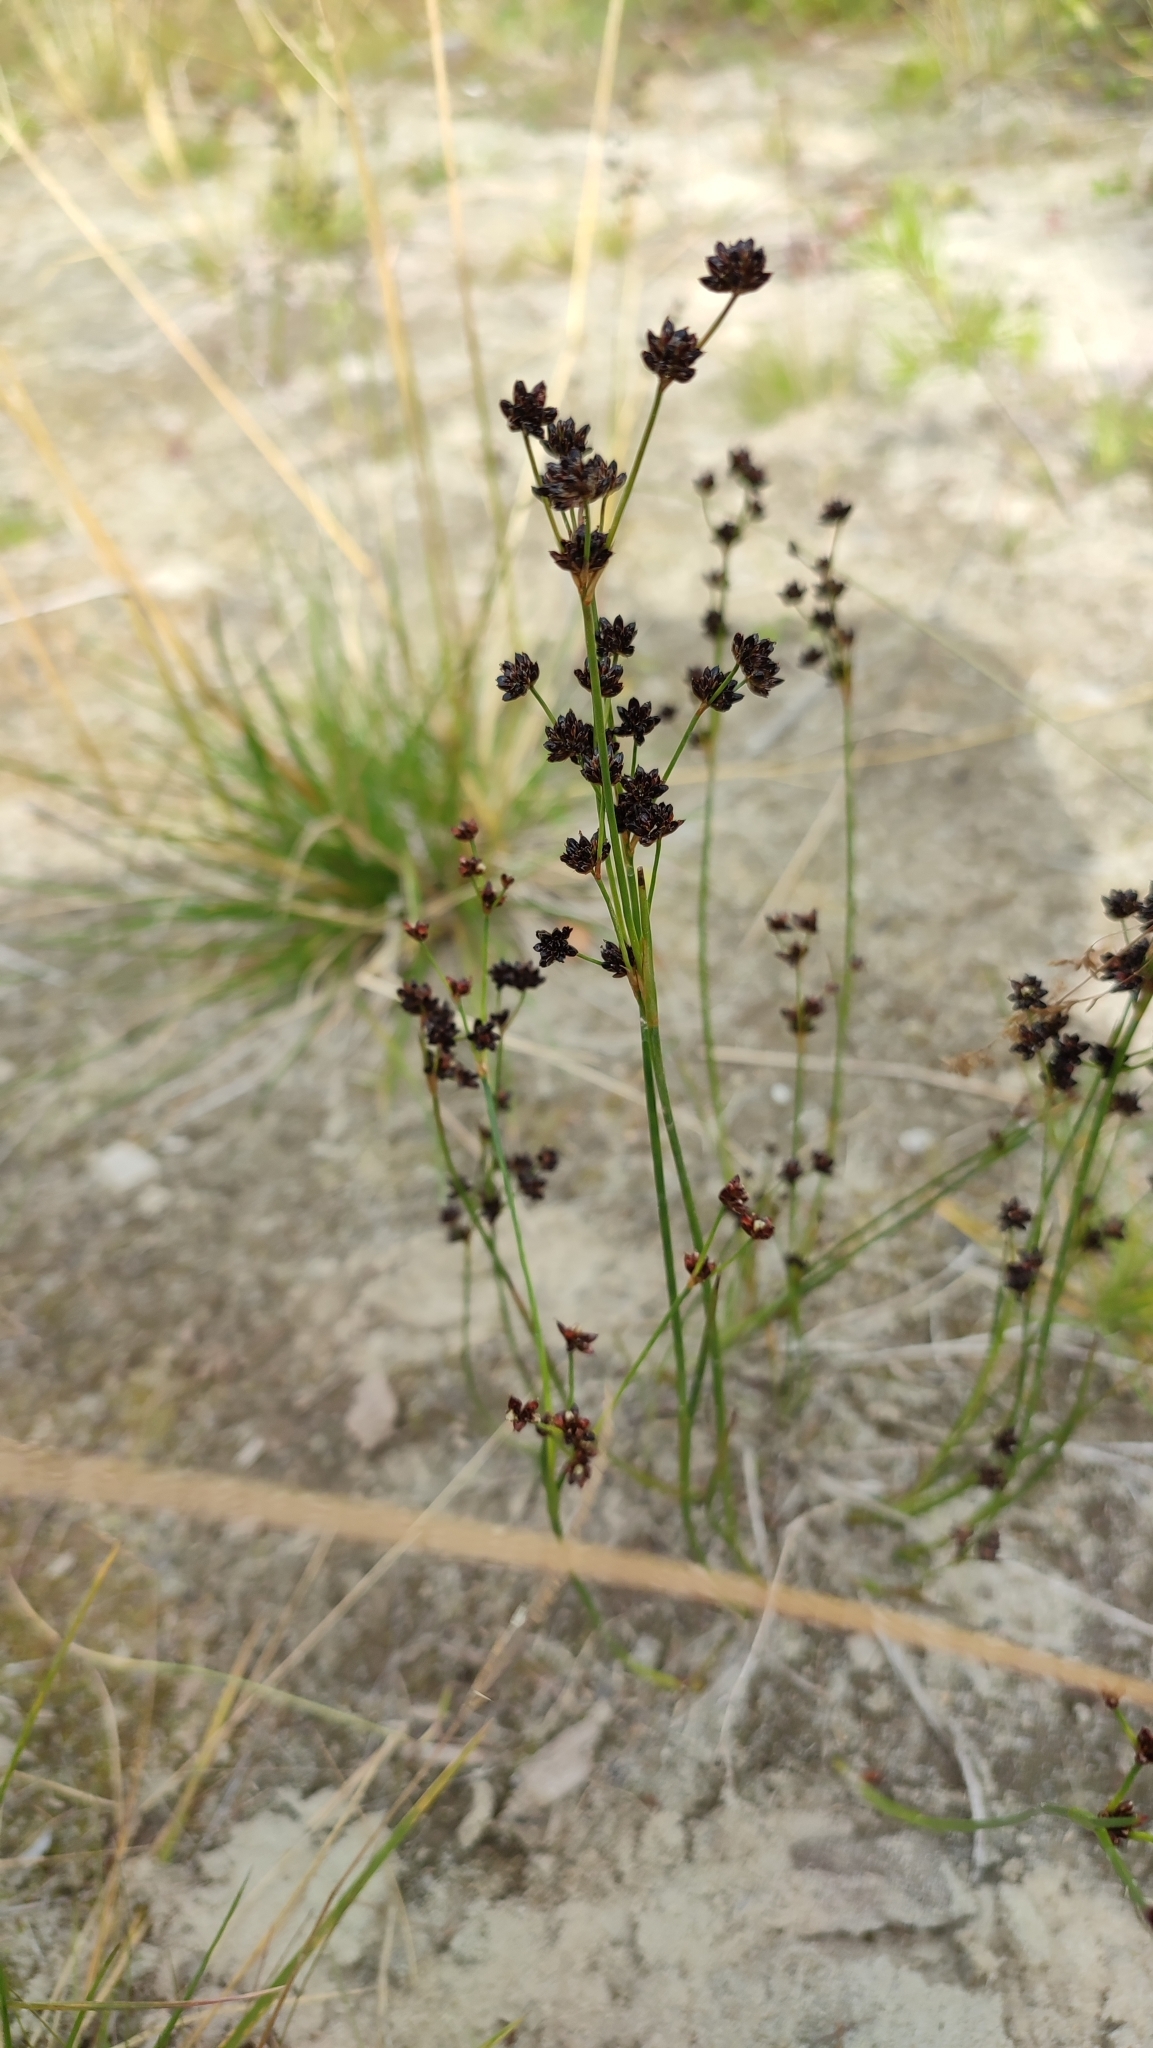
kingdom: Plantae
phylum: Tracheophyta
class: Liliopsida
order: Poales
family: Juncaceae
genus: Juncus
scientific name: Juncus alpinoarticulatus
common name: Alpine rush
